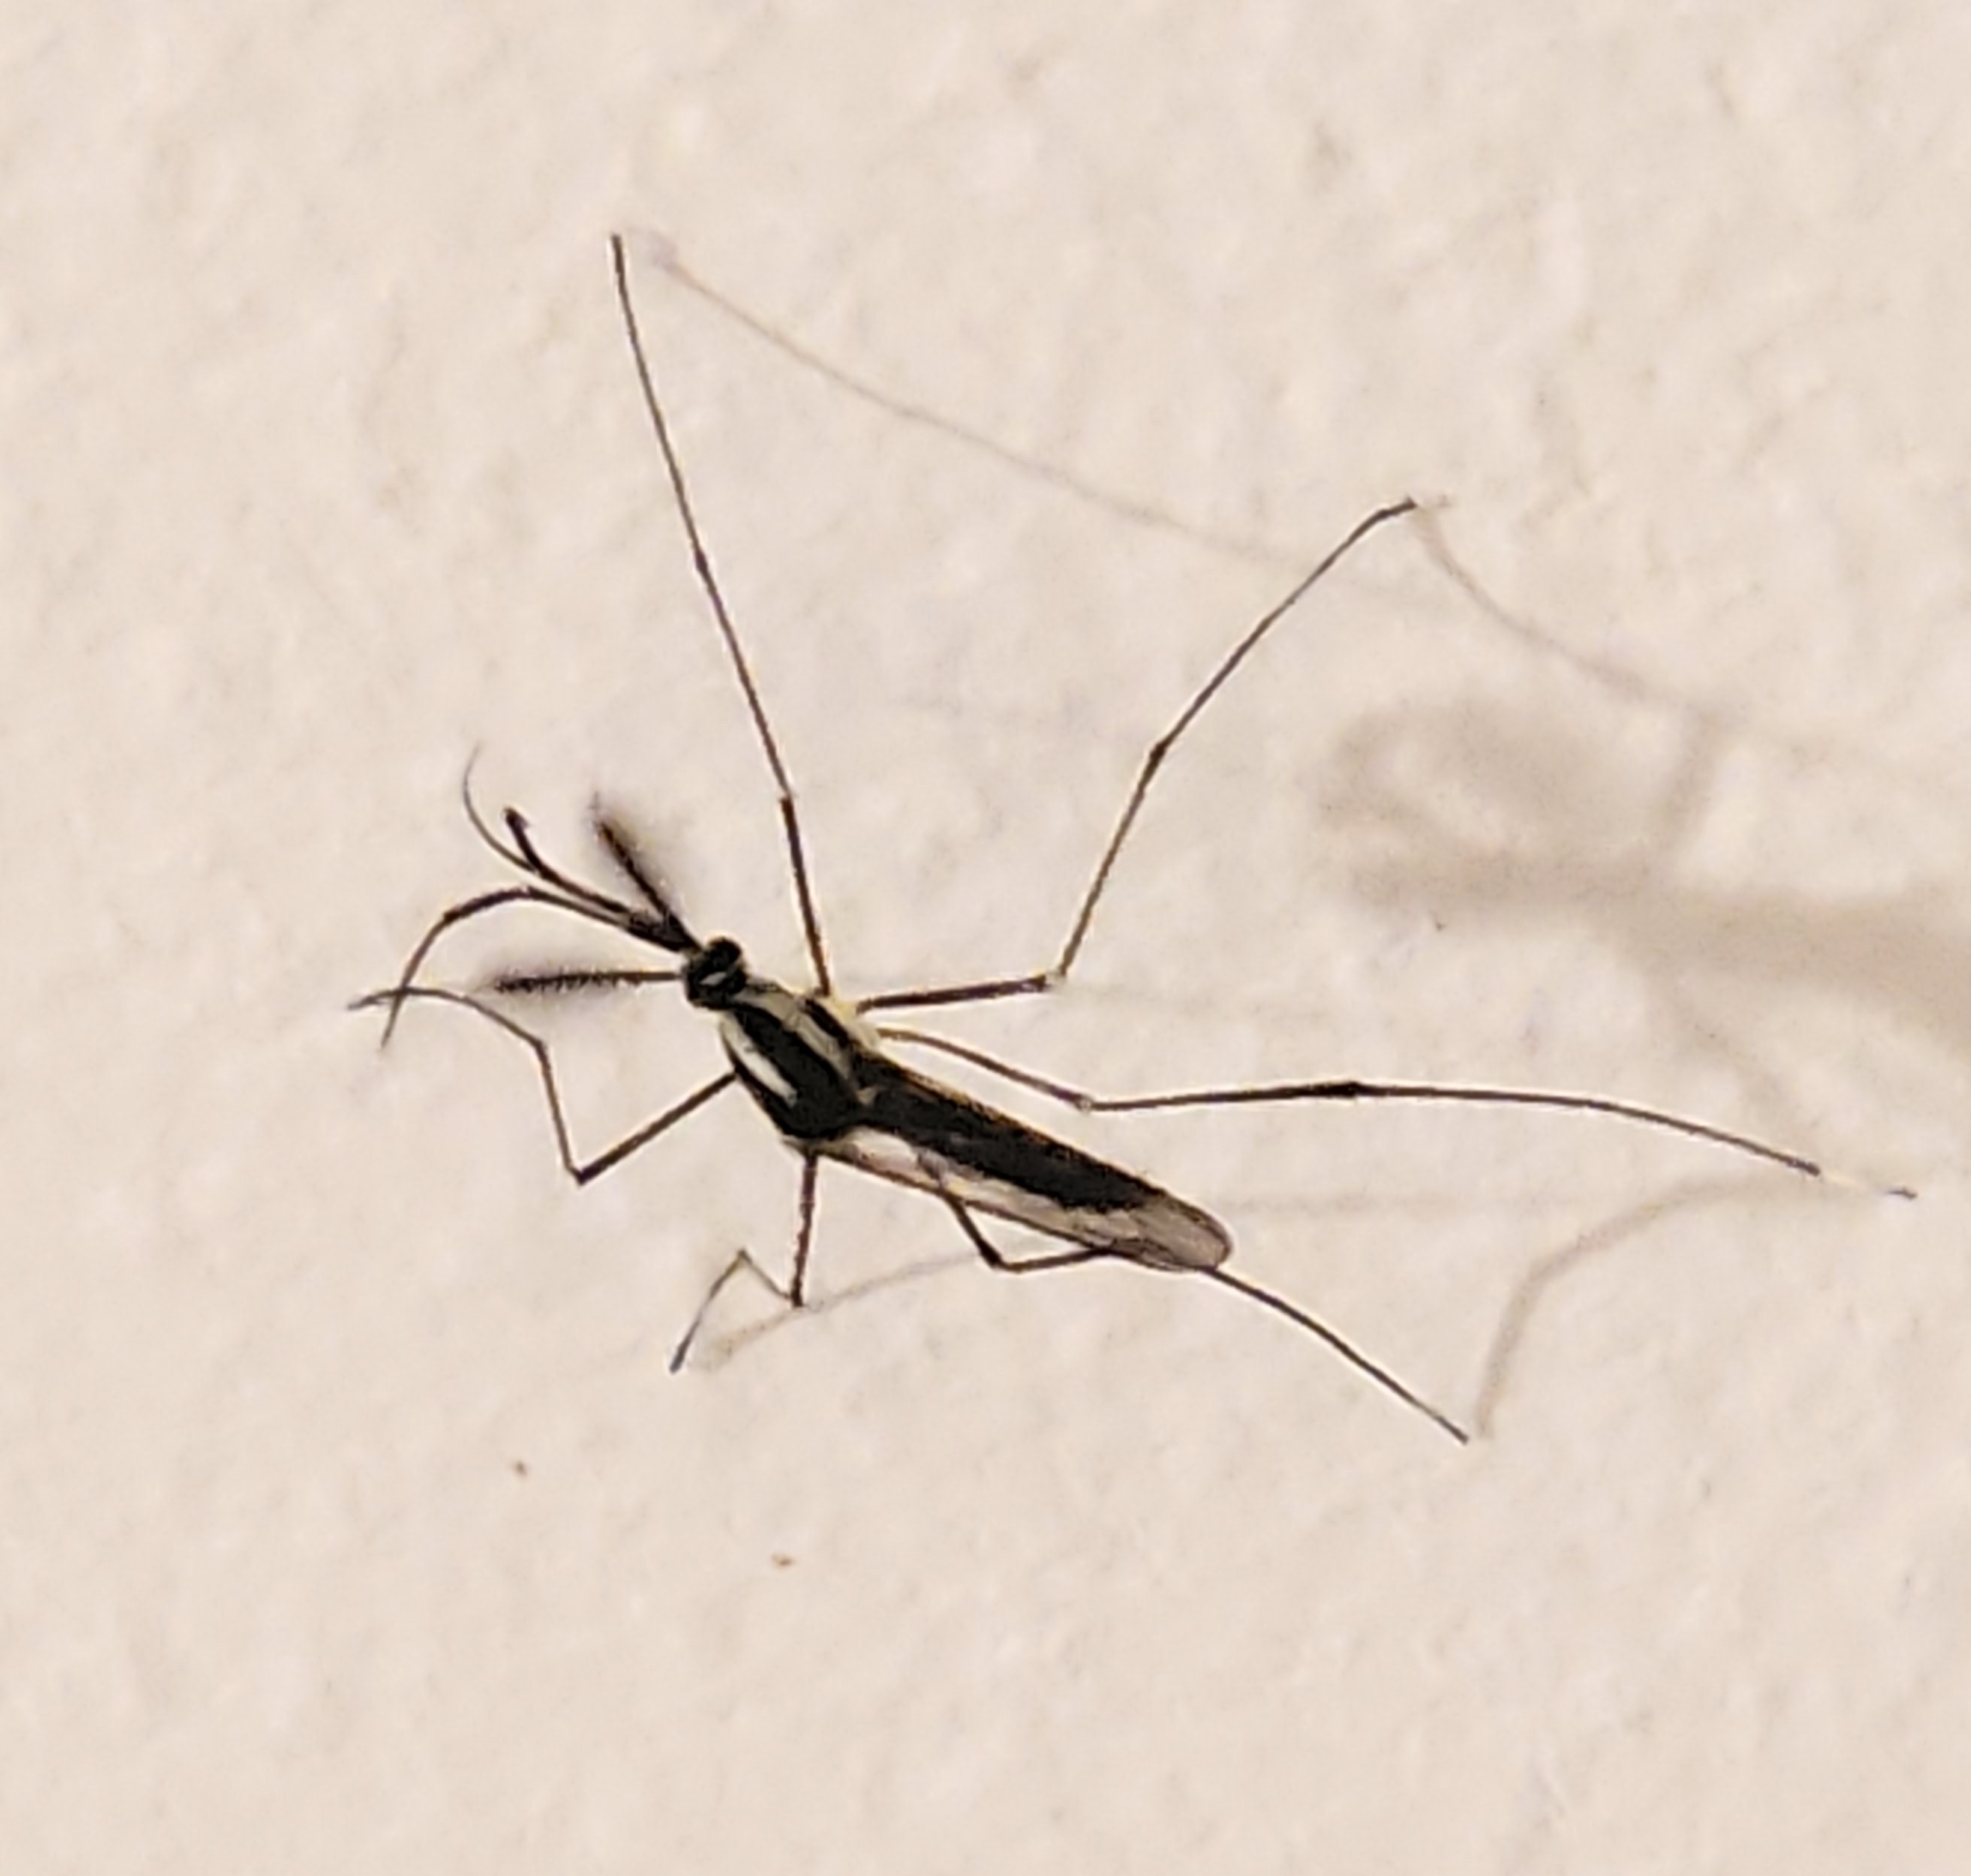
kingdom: Animalia
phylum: Arthropoda
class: Insecta
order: Diptera
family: Culicidae
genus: Toxorhynchites
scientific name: Toxorhynchites rutilus
